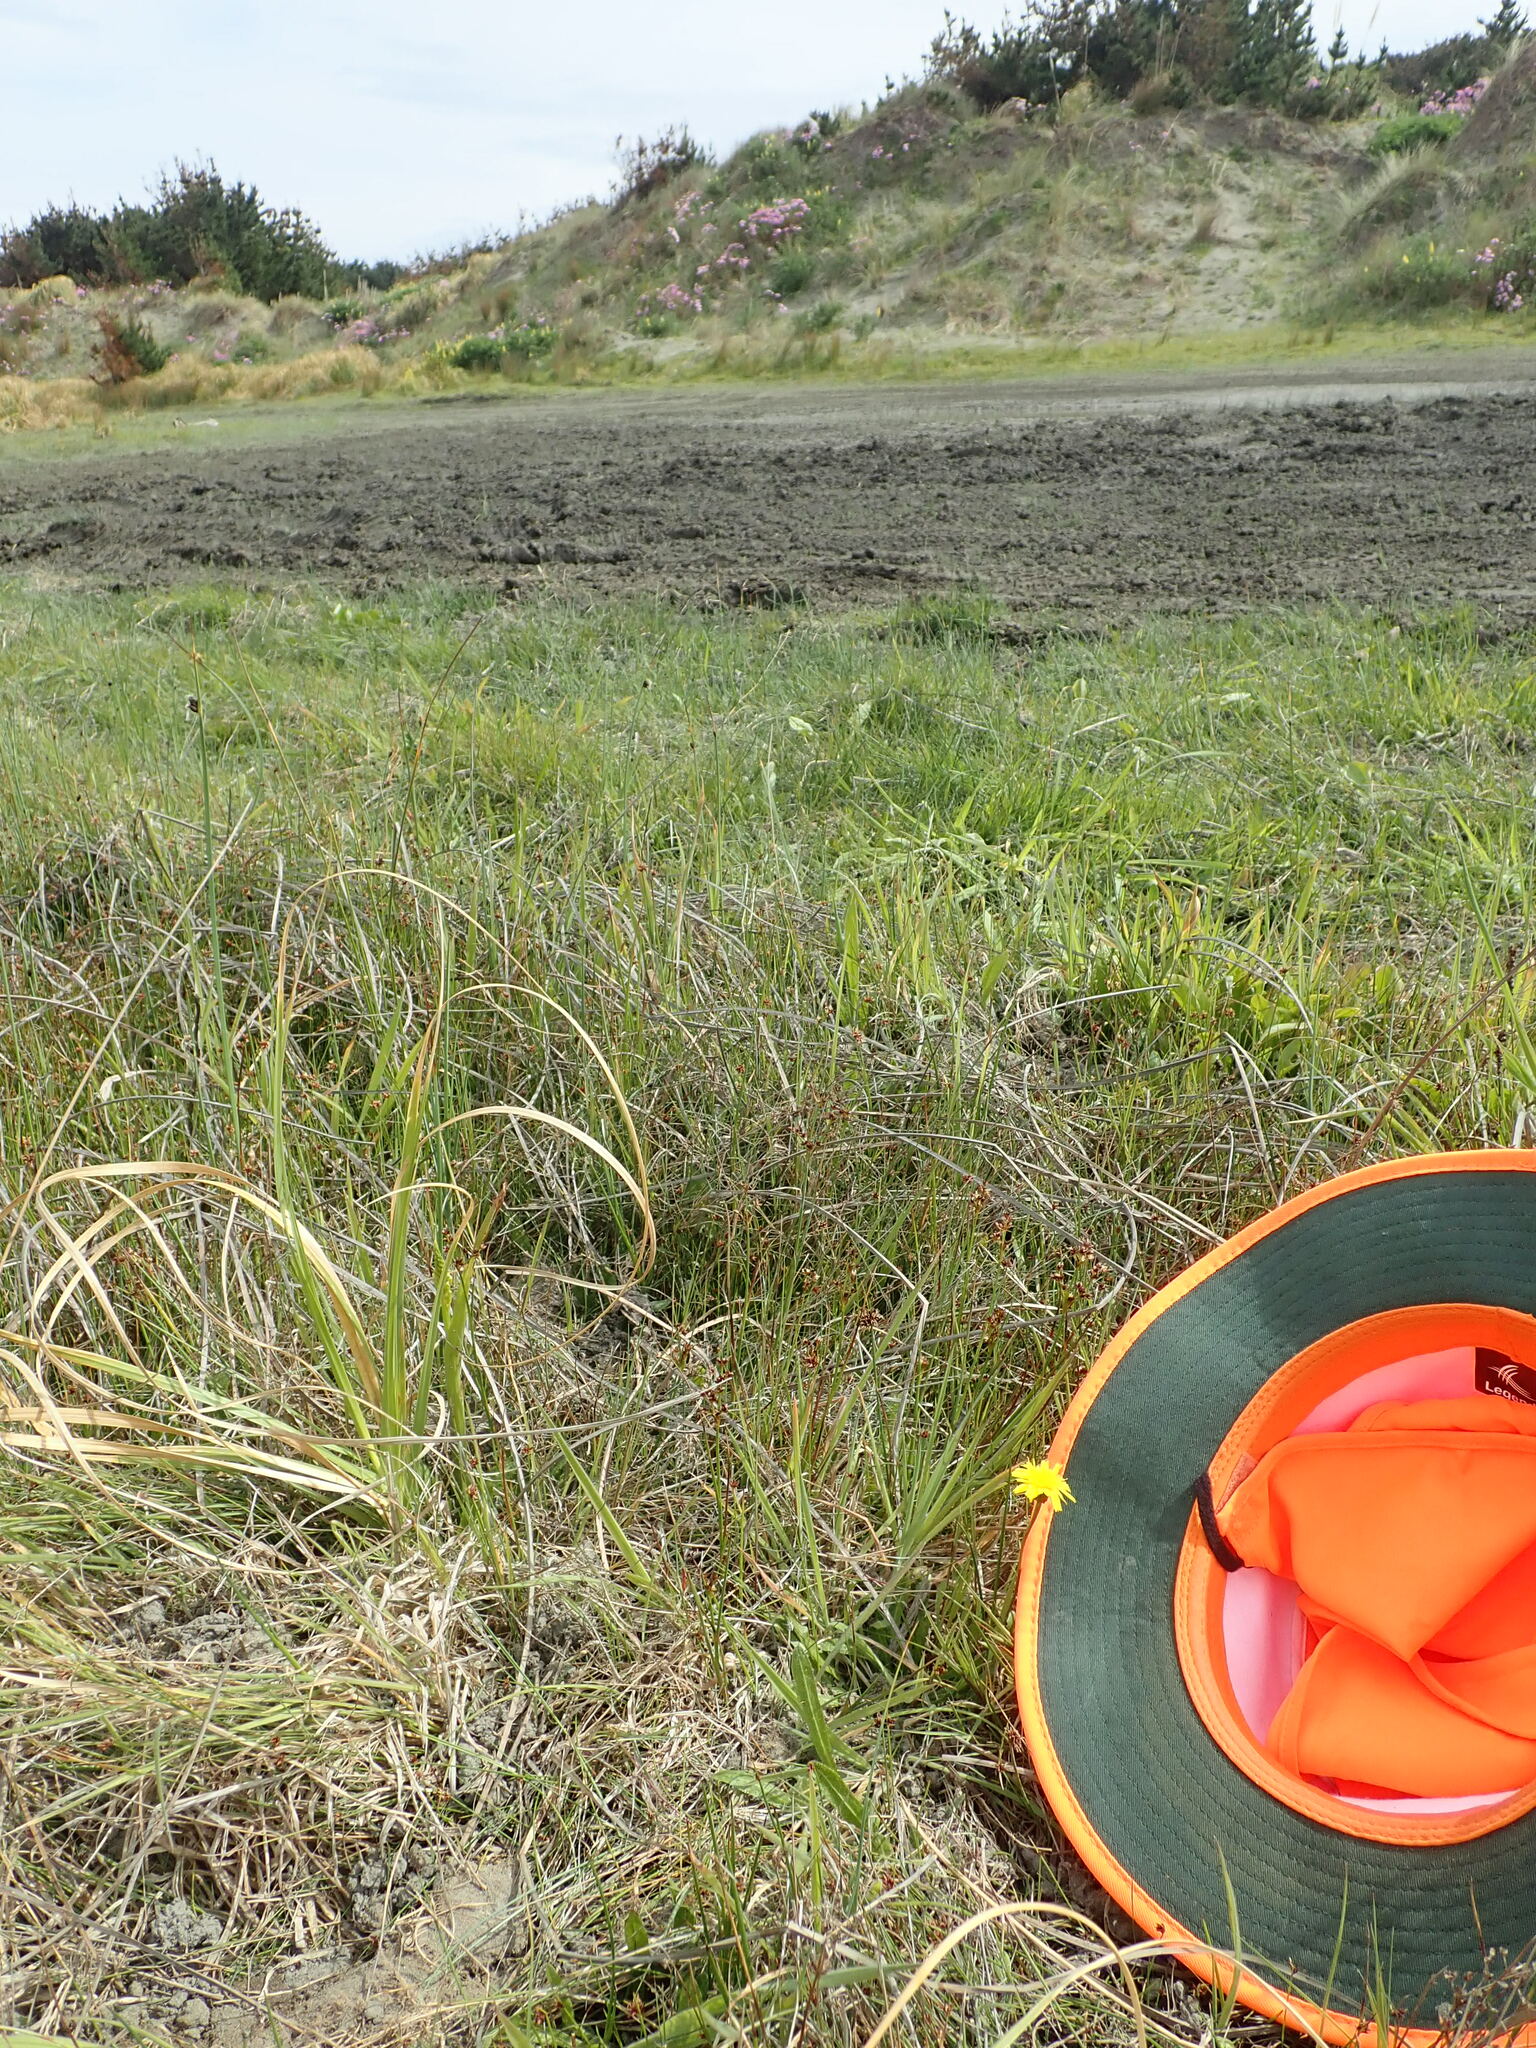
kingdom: Plantae
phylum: Tracheophyta
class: Liliopsida
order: Poales
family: Juncaceae
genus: Juncus
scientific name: Juncus articulatus
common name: Jointed rush
